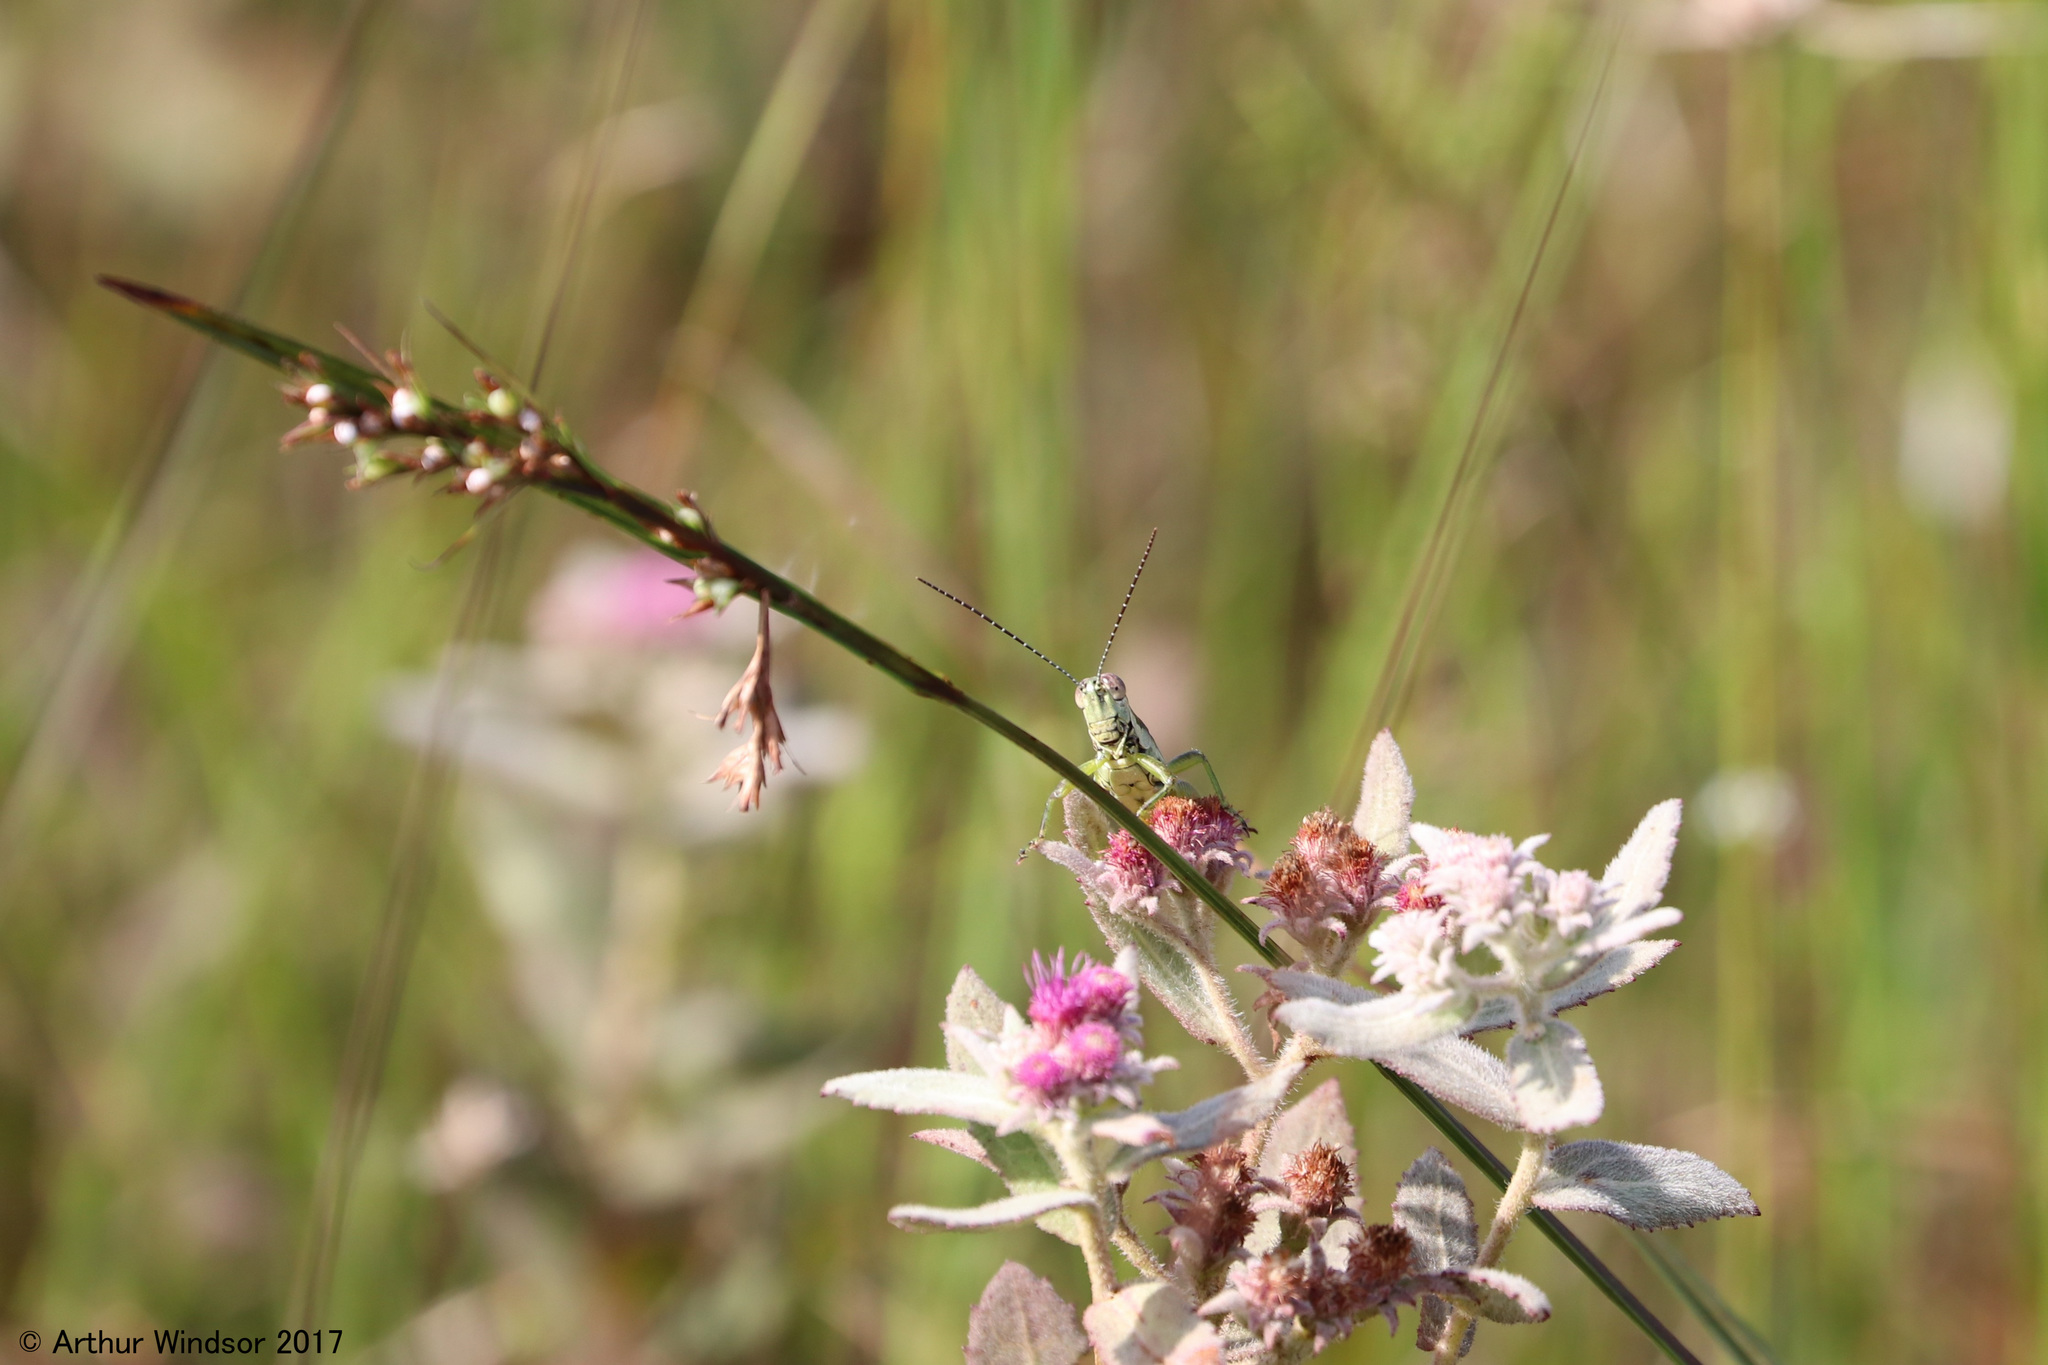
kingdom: Animalia
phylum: Arthropoda
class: Insecta
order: Orthoptera
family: Acrididae
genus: Paroxya
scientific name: Paroxya clavuligera
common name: Olive-green swamp grasshopper
